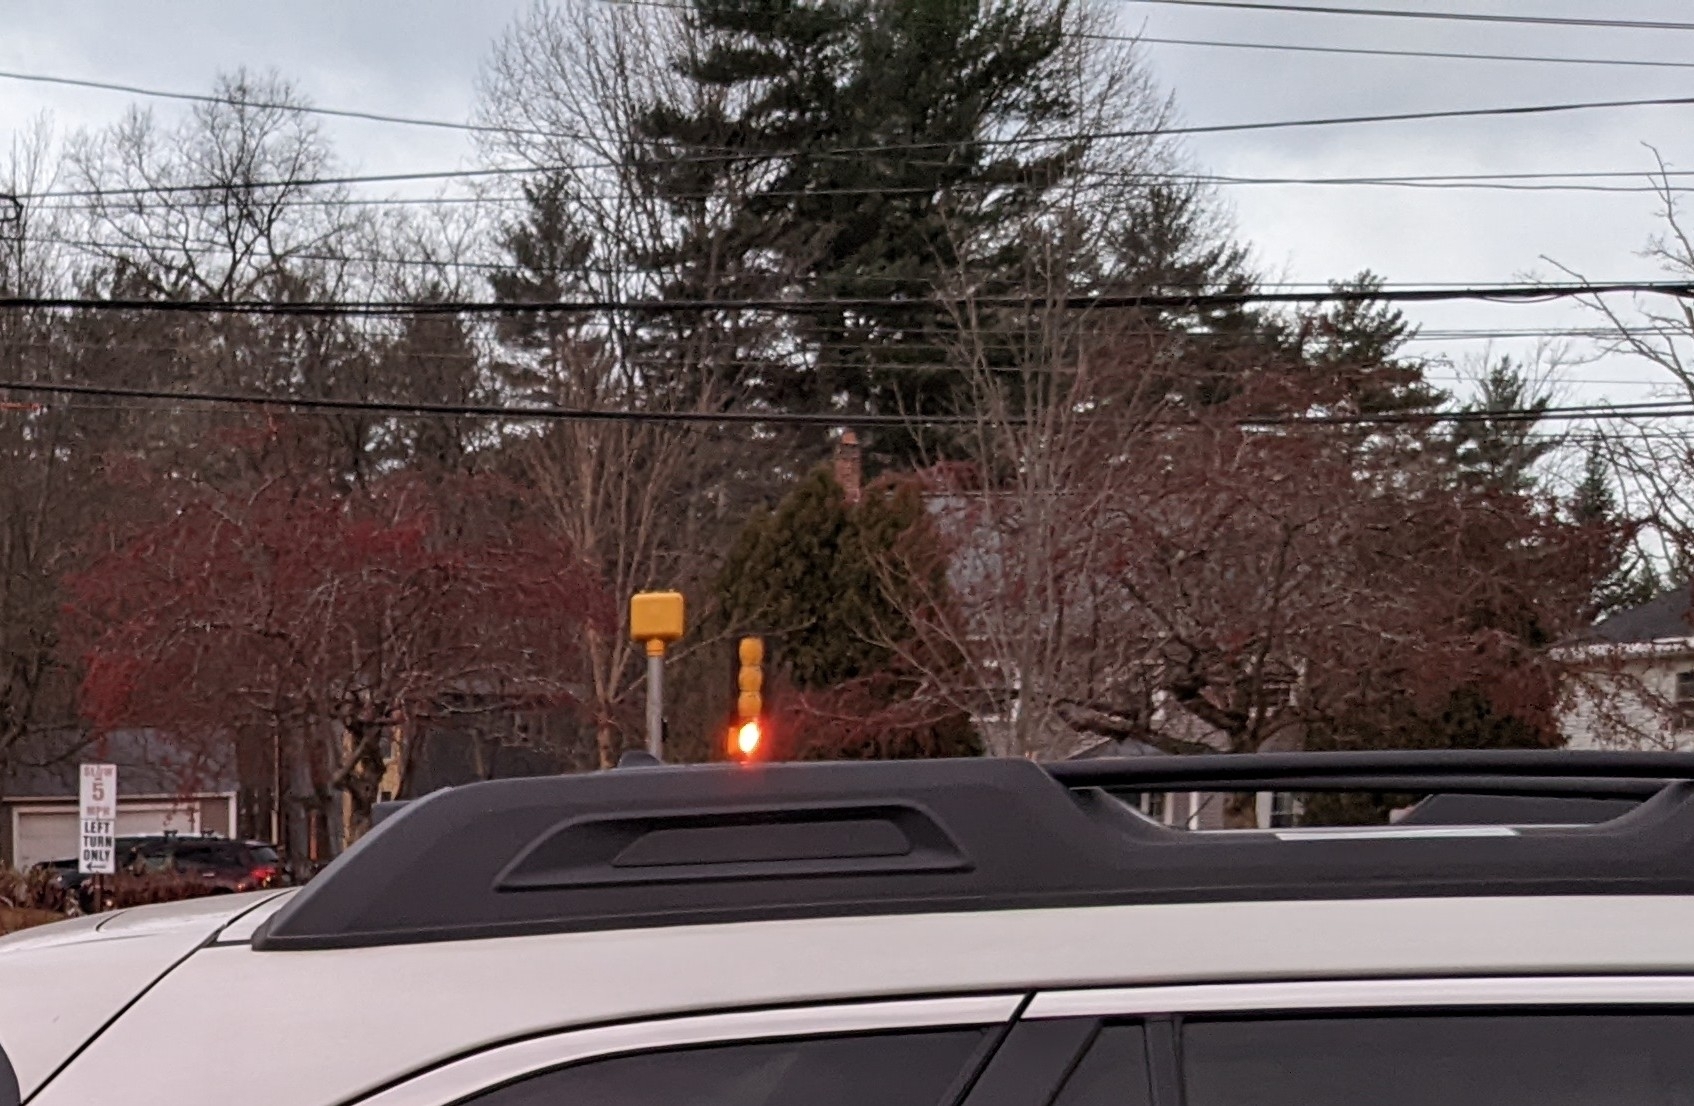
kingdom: Plantae
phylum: Tracheophyta
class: Pinopsida
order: Pinales
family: Pinaceae
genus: Pinus
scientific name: Pinus strobus
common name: Weymouth pine
